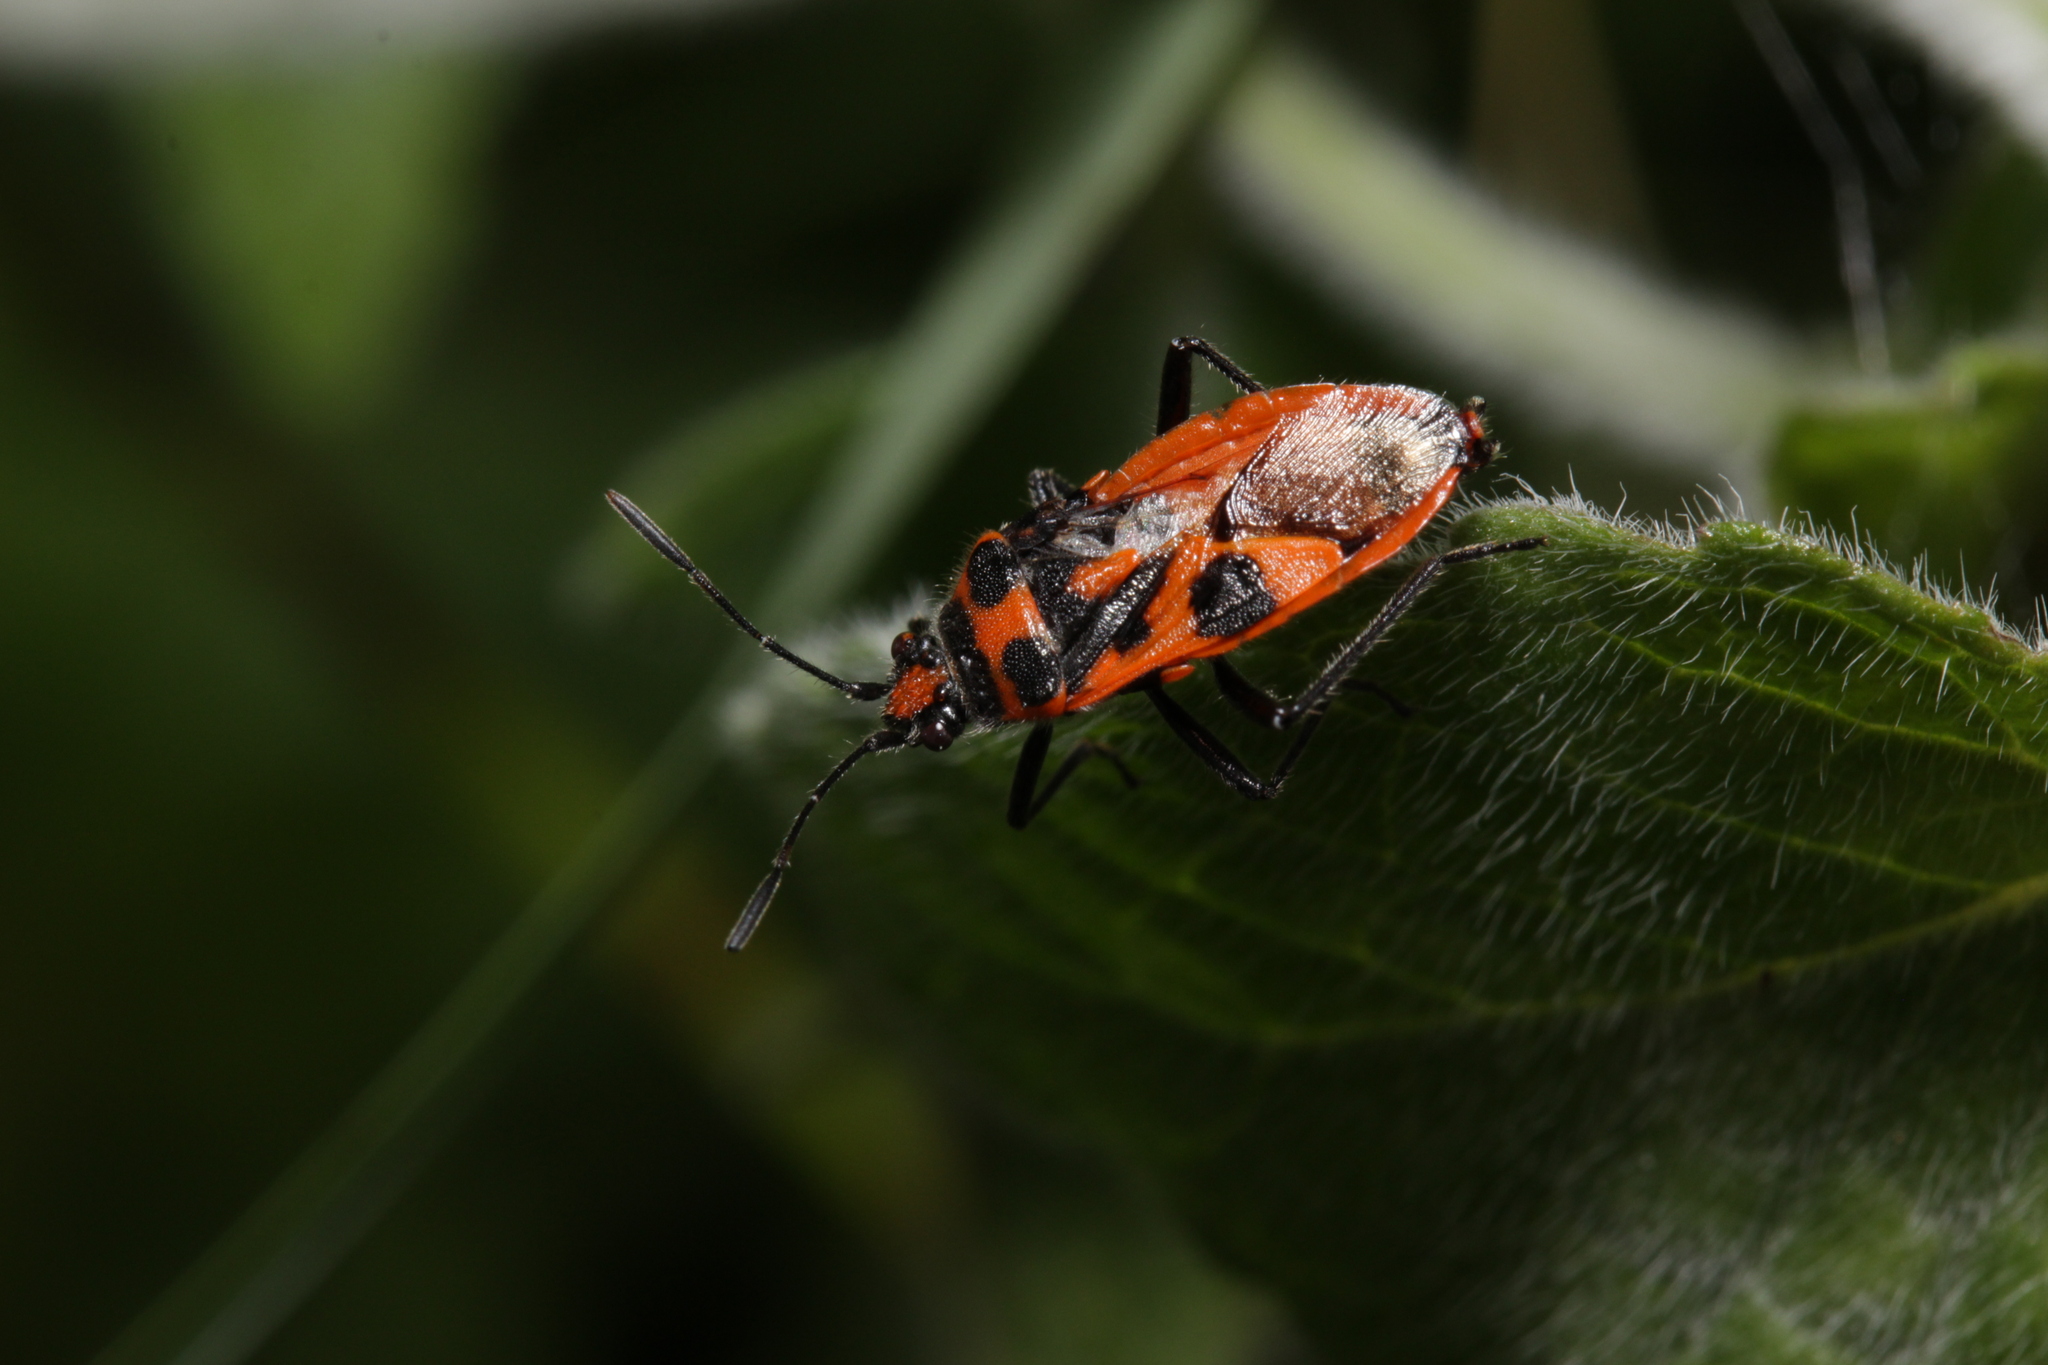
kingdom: Animalia
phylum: Arthropoda
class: Insecta
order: Hemiptera
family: Rhopalidae
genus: Corizus
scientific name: Corizus hyoscyami
